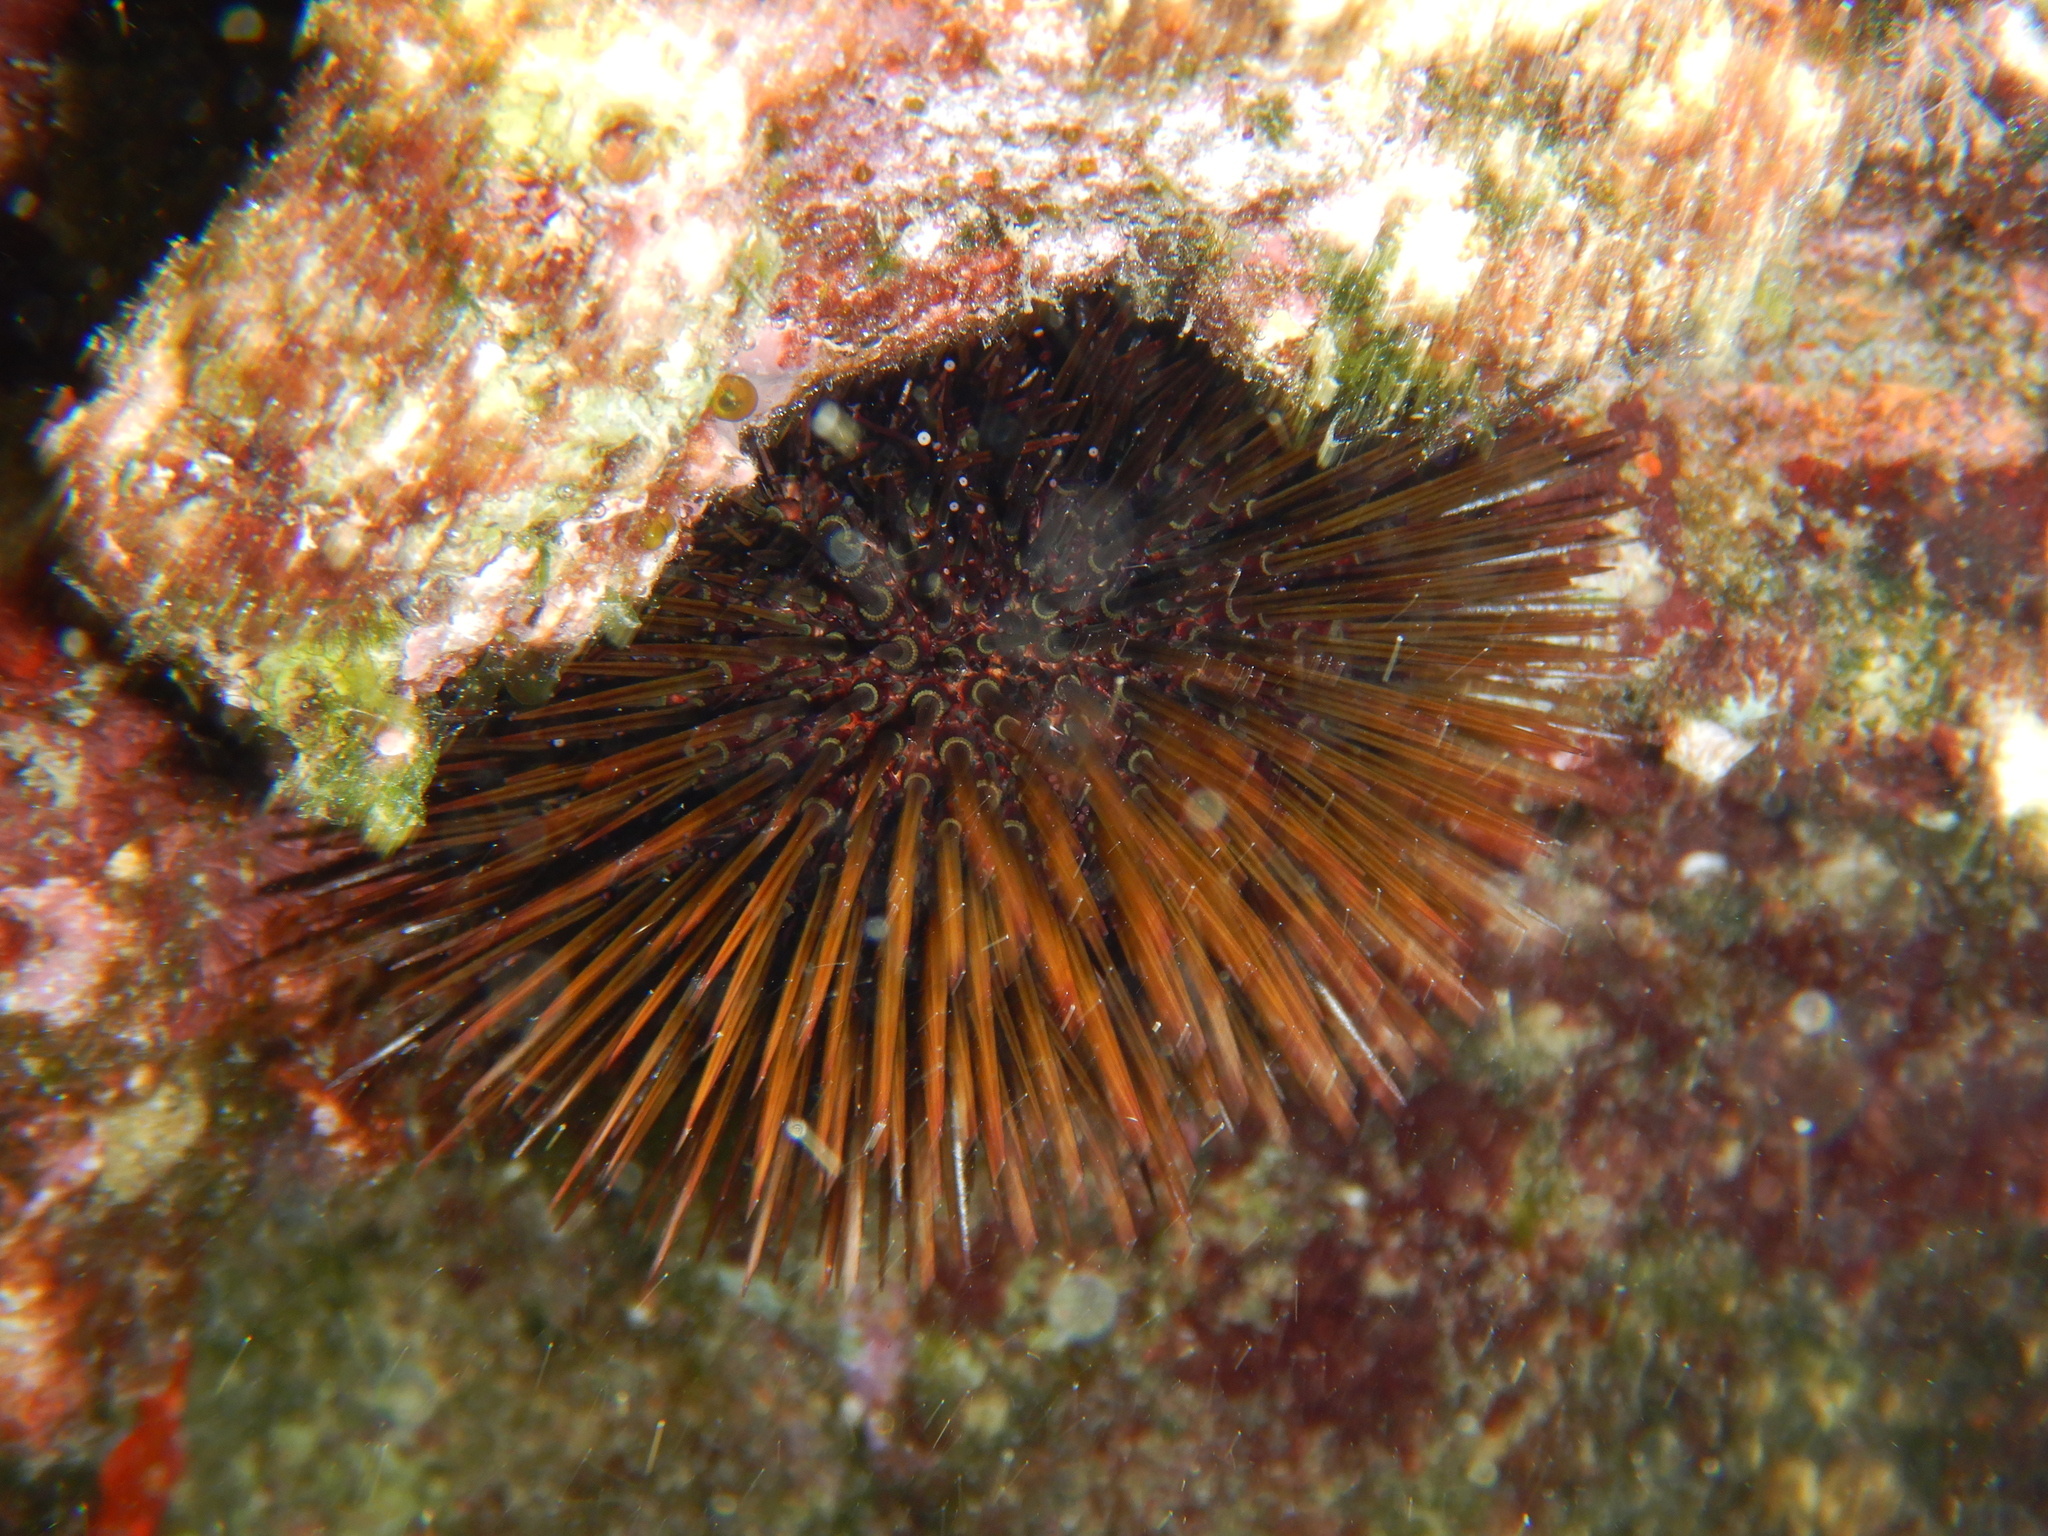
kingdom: Animalia
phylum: Echinodermata
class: Echinoidea
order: Camarodonta
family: Parechinidae
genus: Paracentrotus
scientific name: Paracentrotus lividus
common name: Purple sea urchin
